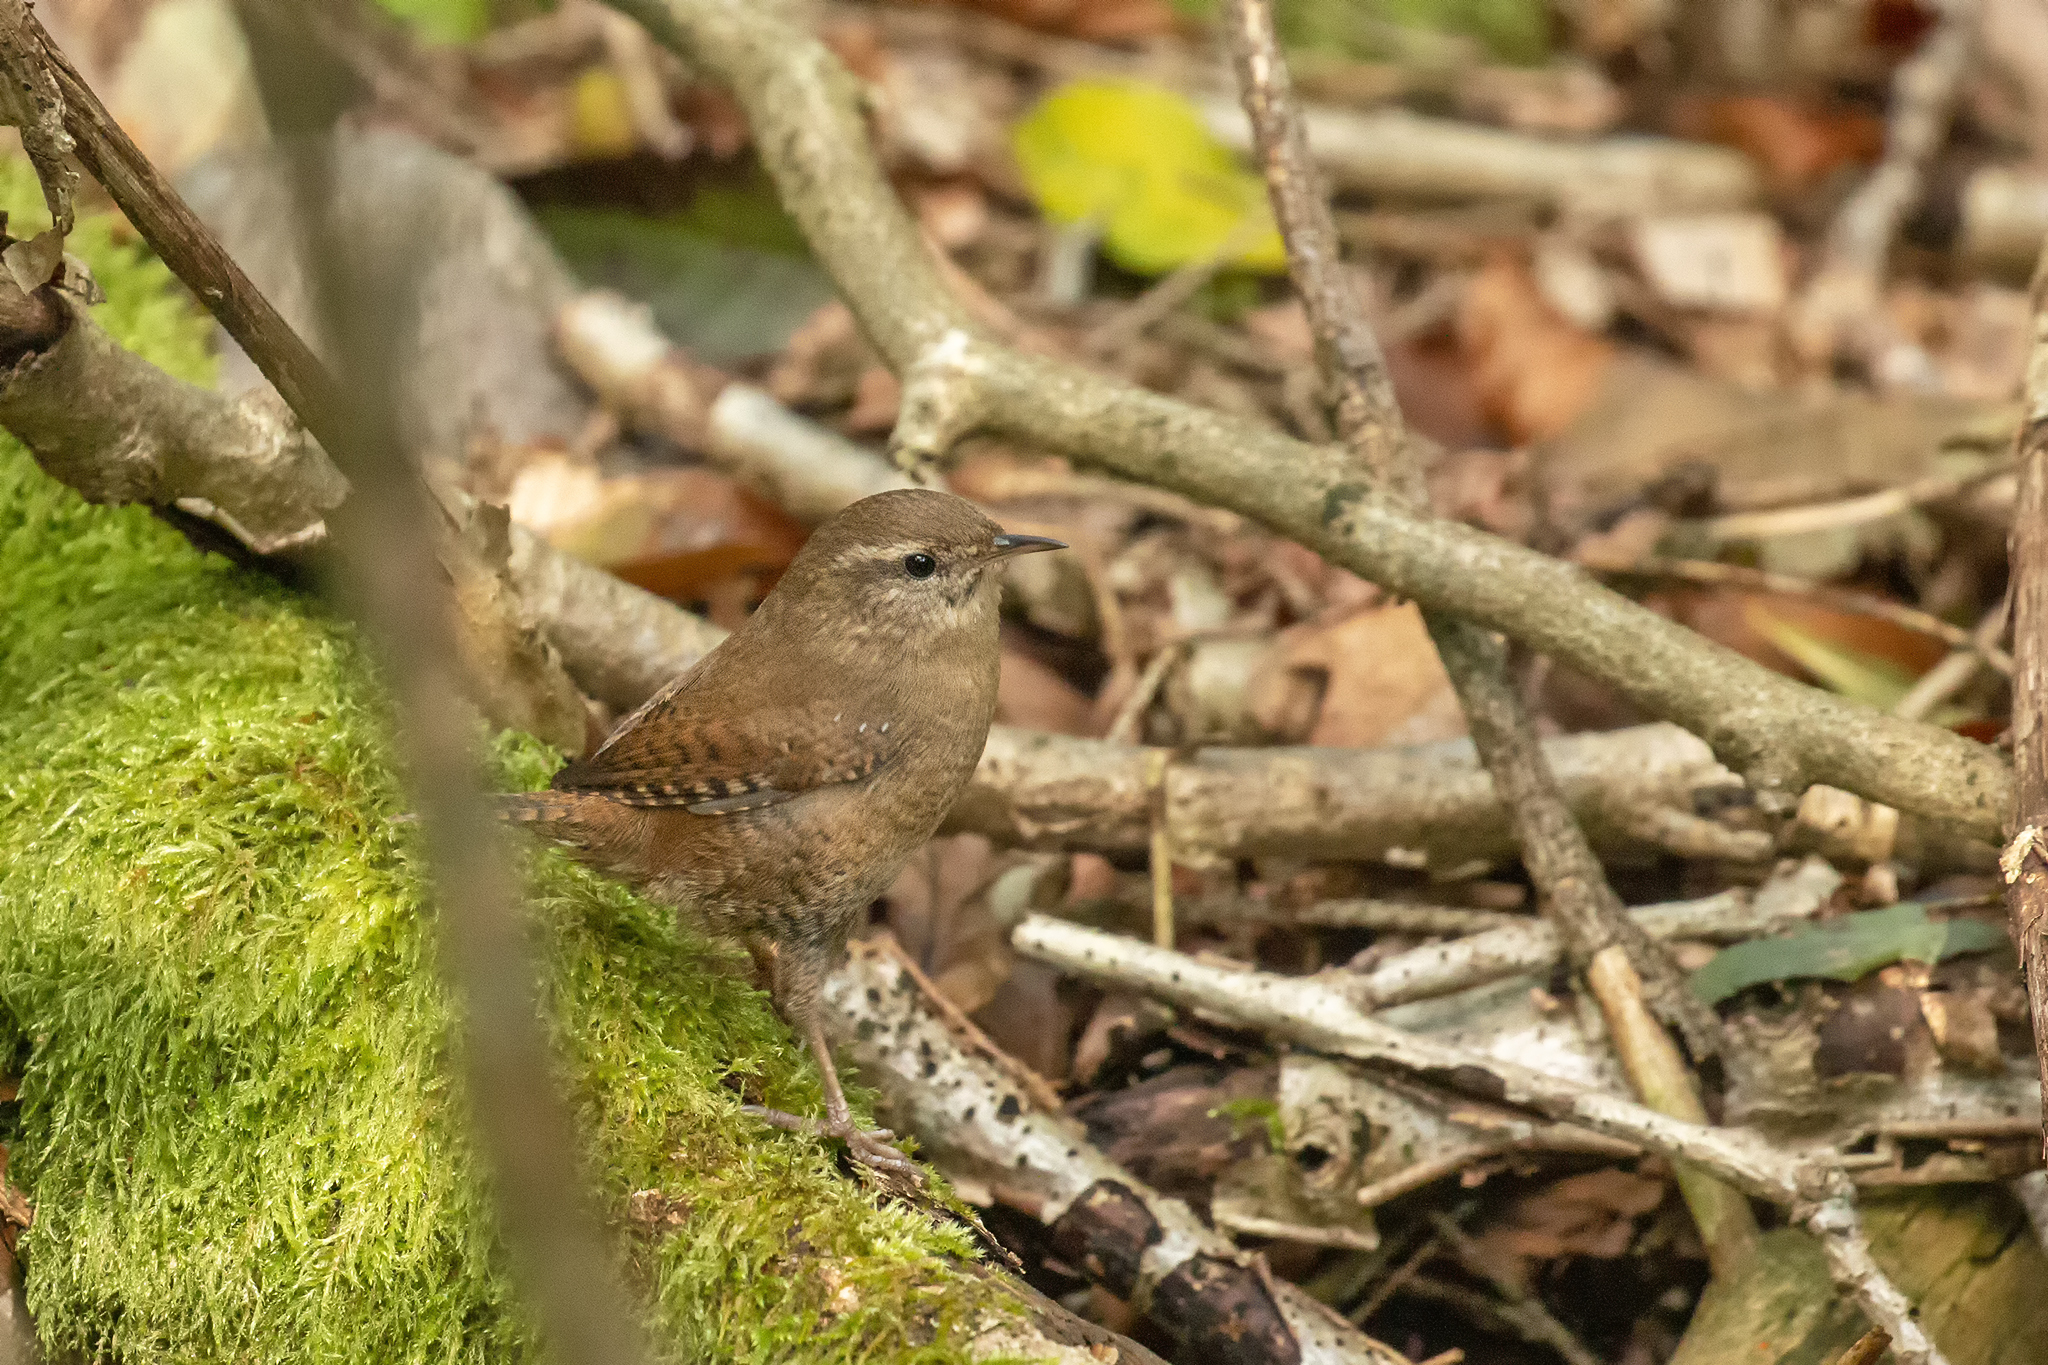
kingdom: Animalia
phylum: Chordata
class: Aves
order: Passeriformes
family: Troglodytidae
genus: Troglodytes
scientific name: Troglodytes troglodytes
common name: Eurasian wren
